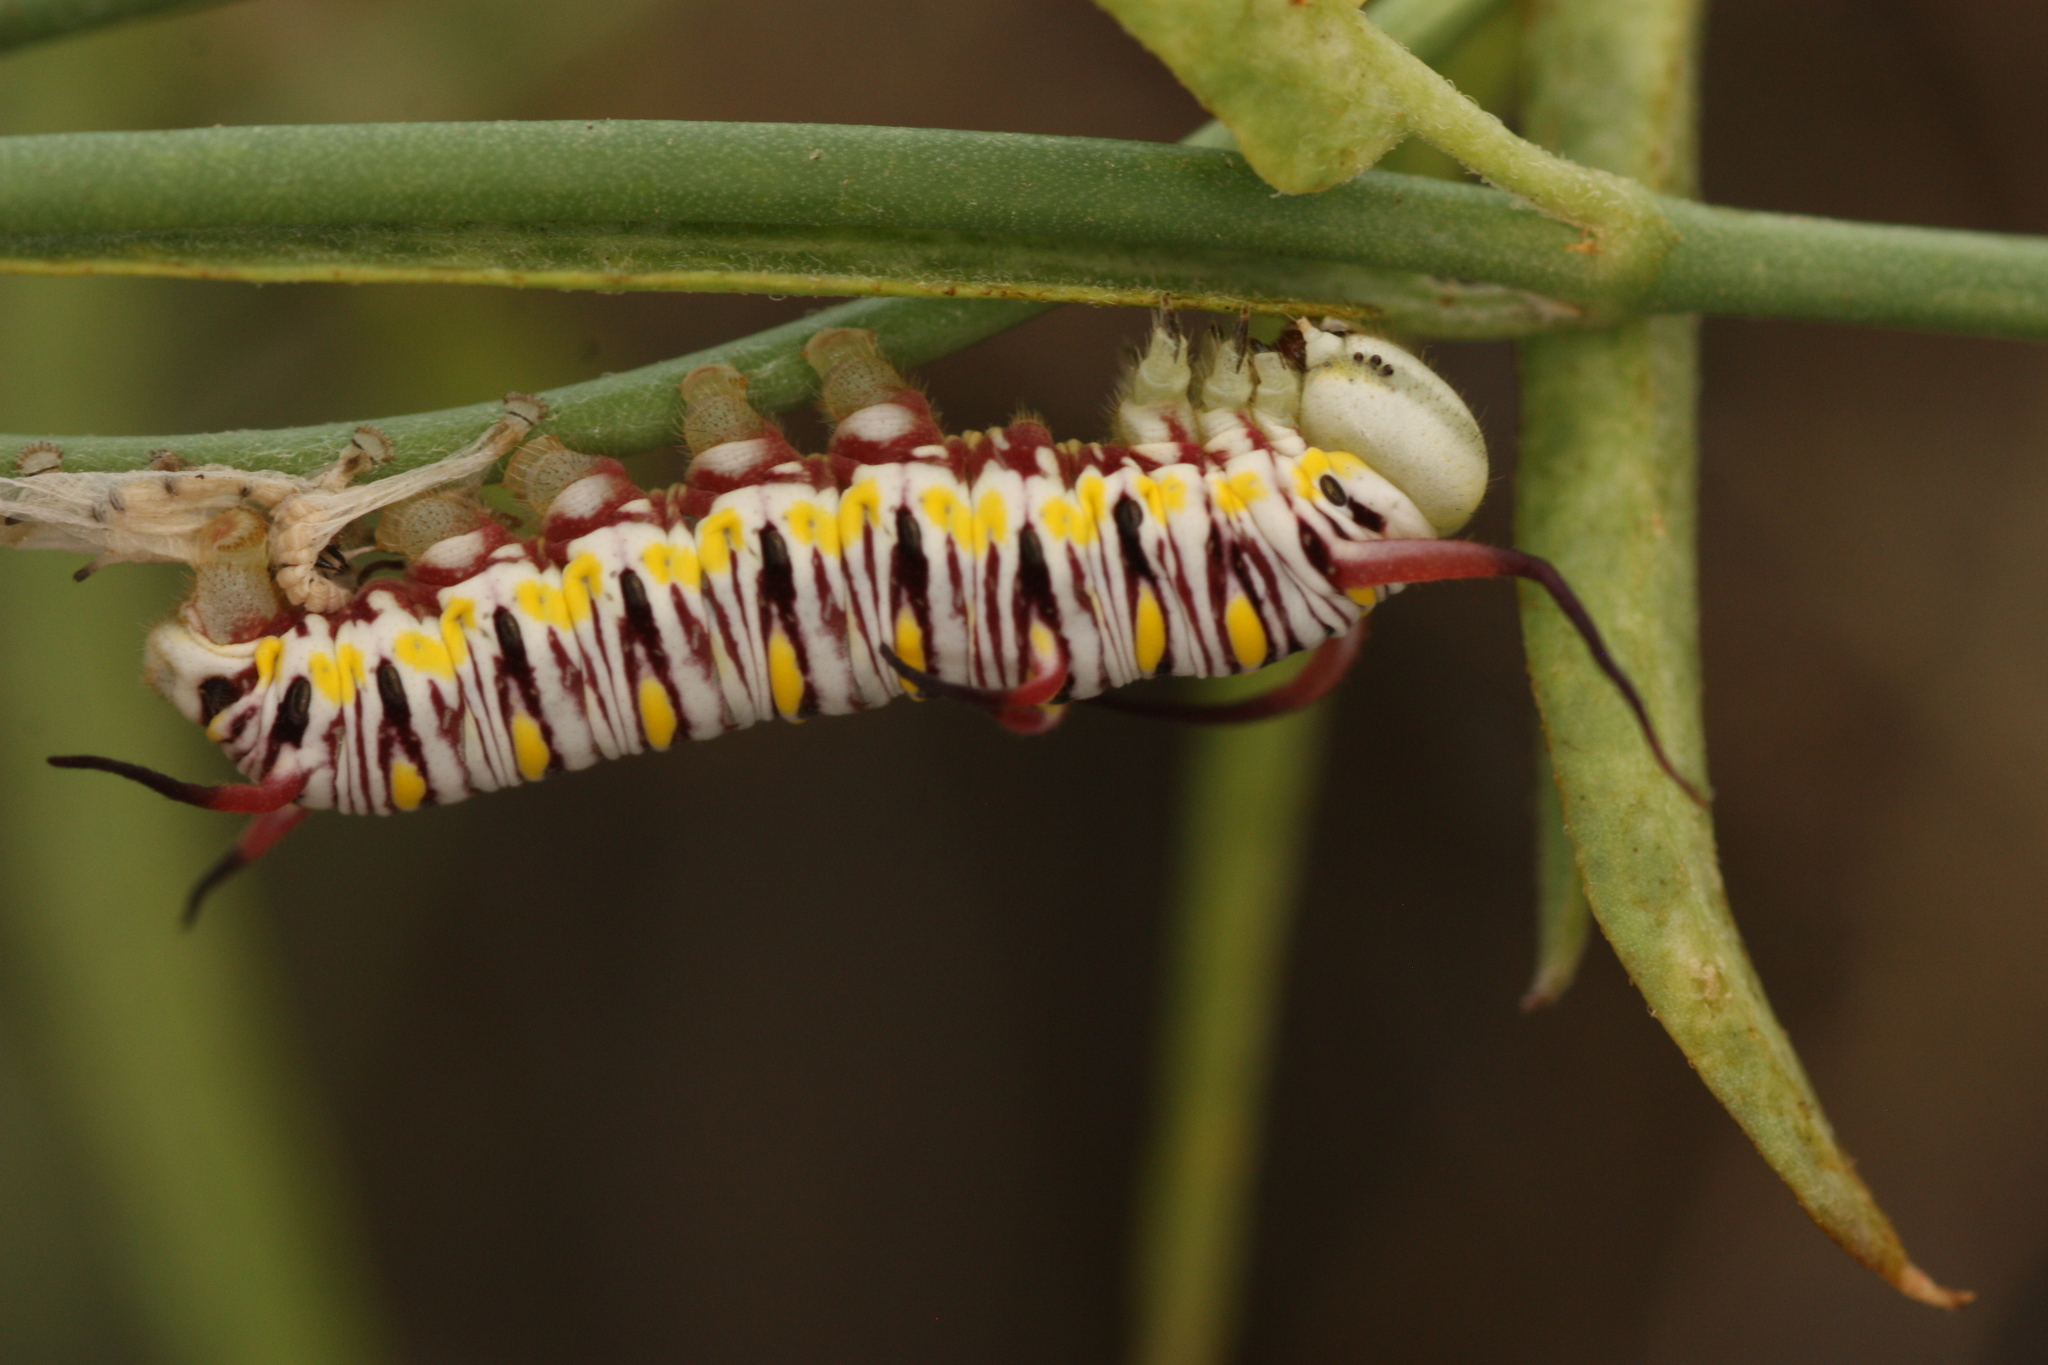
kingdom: Animalia
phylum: Arthropoda
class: Insecta
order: Lepidoptera
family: Nymphalidae
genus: Danaus
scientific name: Danaus gilippus
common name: Queen
